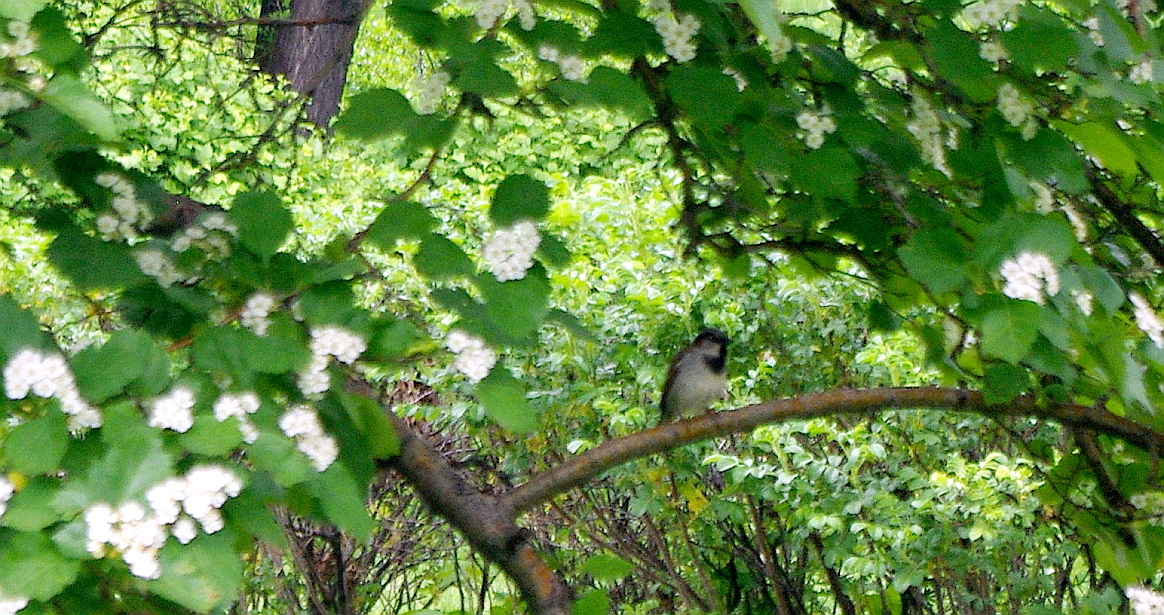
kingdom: Animalia
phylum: Chordata
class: Aves
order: Passeriformes
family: Passeridae
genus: Passer
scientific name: Passer domesticus
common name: House sparrow
